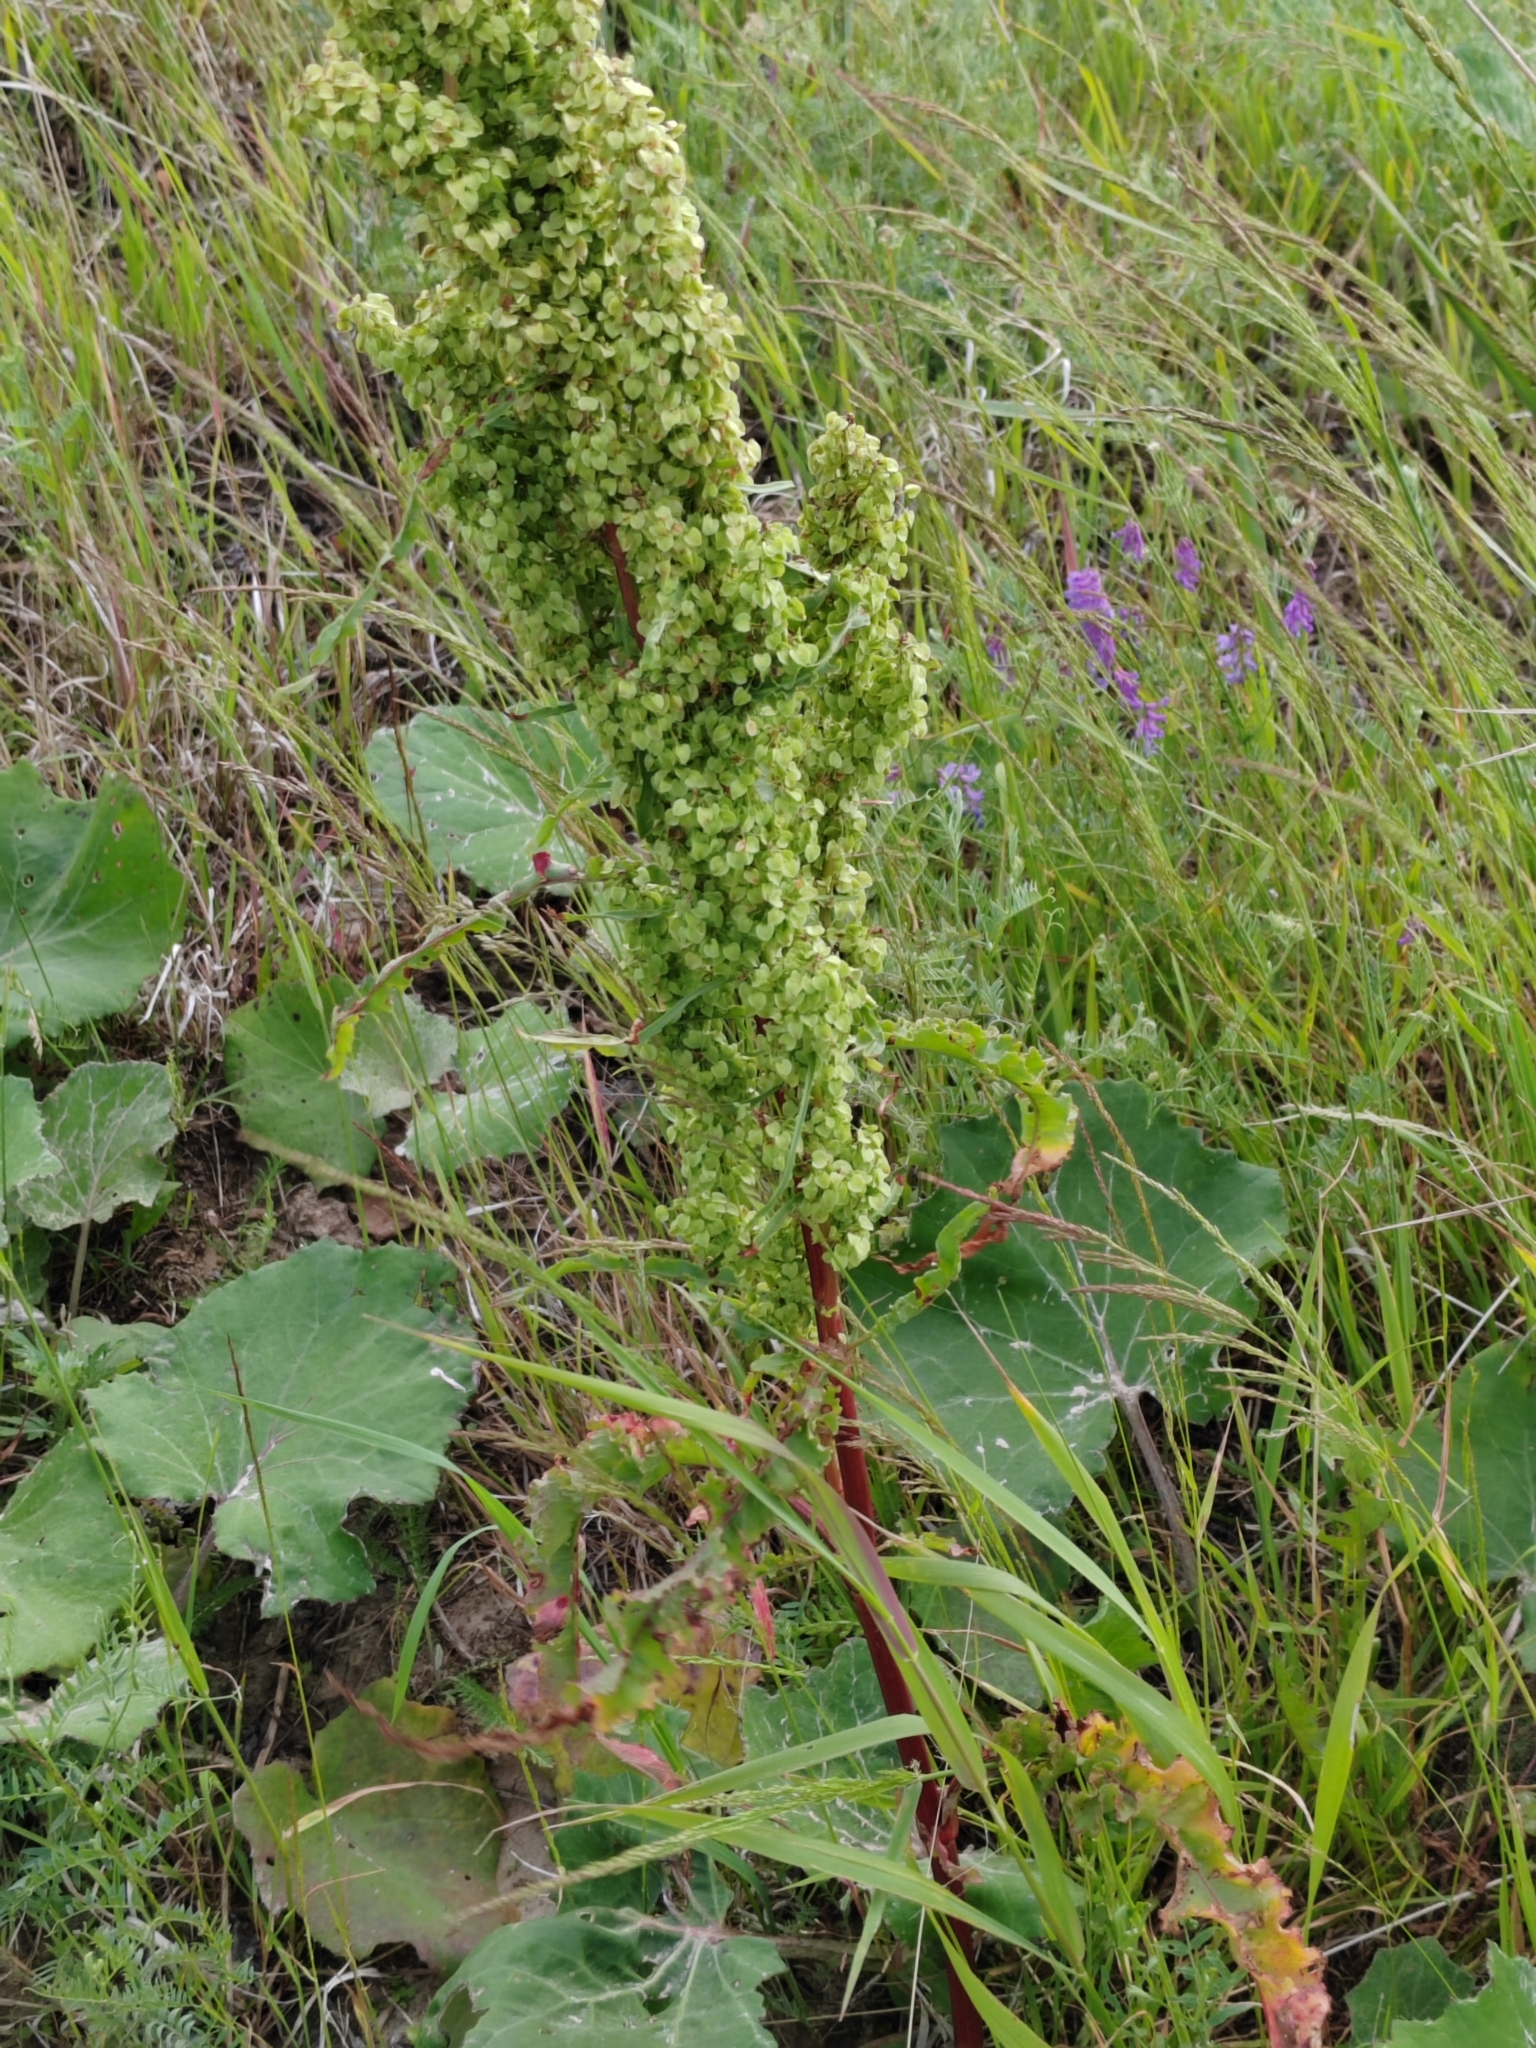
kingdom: Plantae
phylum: Tracheophyta
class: Magnoliopsida
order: Caryophyllales
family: Polygonaceae
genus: Rumex
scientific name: Rumex pseudonatronatus
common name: Field dock
